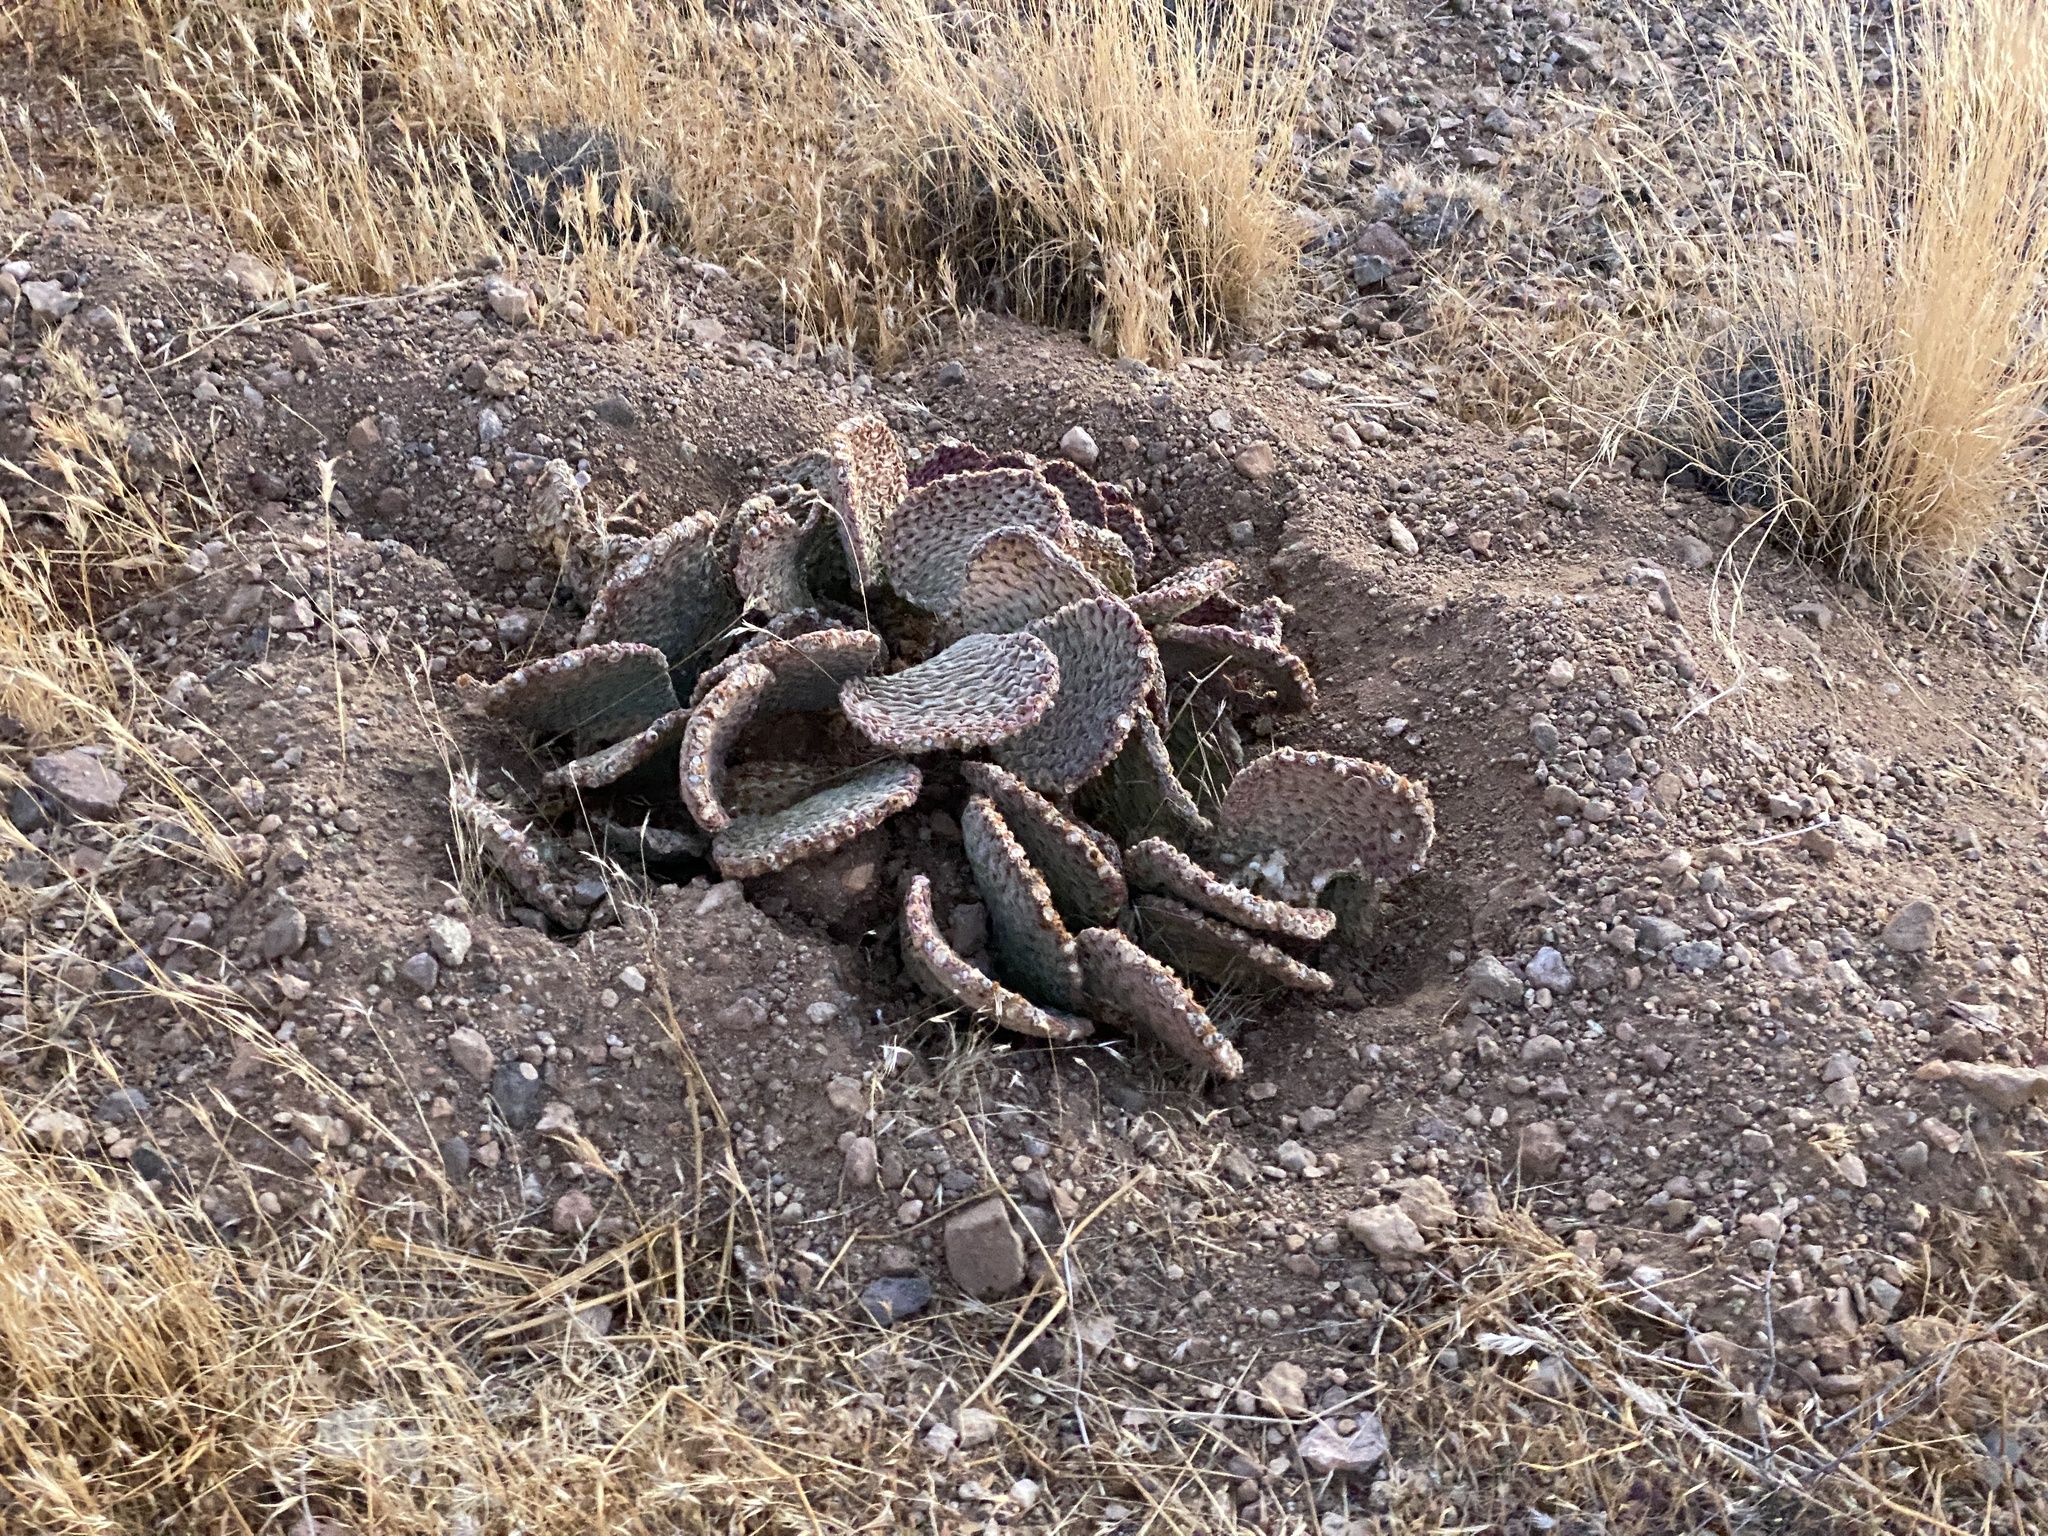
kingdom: Plantae
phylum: Tracheophyta
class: Magnoliopsida
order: Caryophyllales
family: Cactaceae
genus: Opuntia
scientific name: Opuntia basilaris
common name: Beavertail prickly-pear
